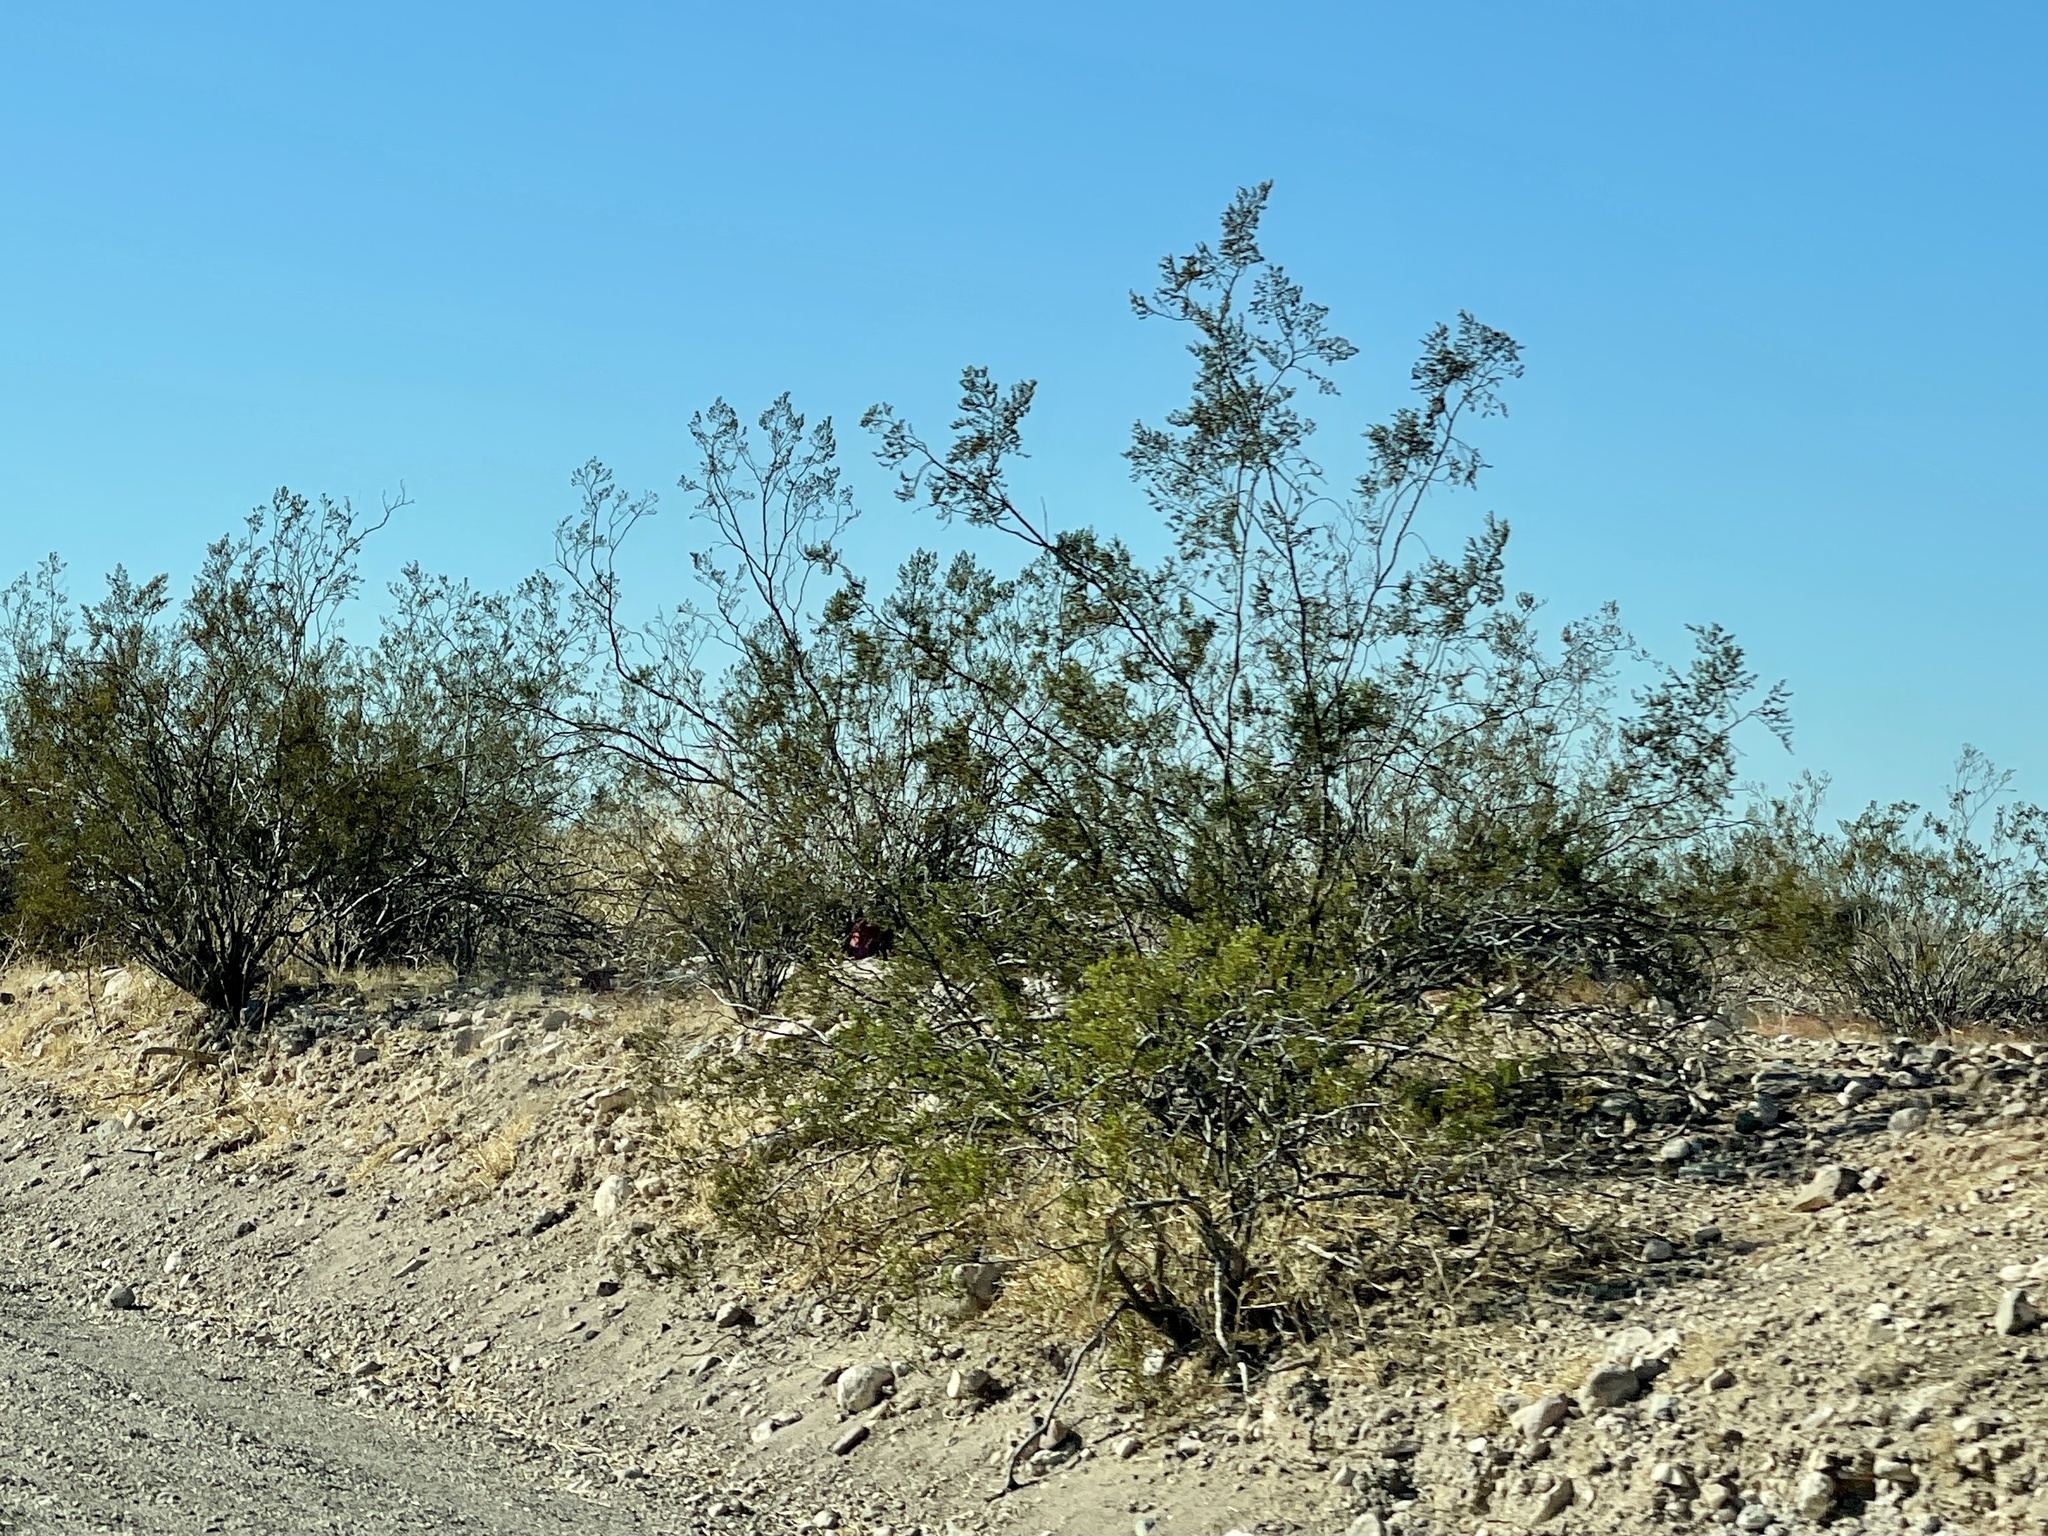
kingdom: Plantae
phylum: Tracheophyta
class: Magnoliopsida
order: Zygophyllales
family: Zygophyllaceae
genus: Larrea
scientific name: Larrea tridentata
